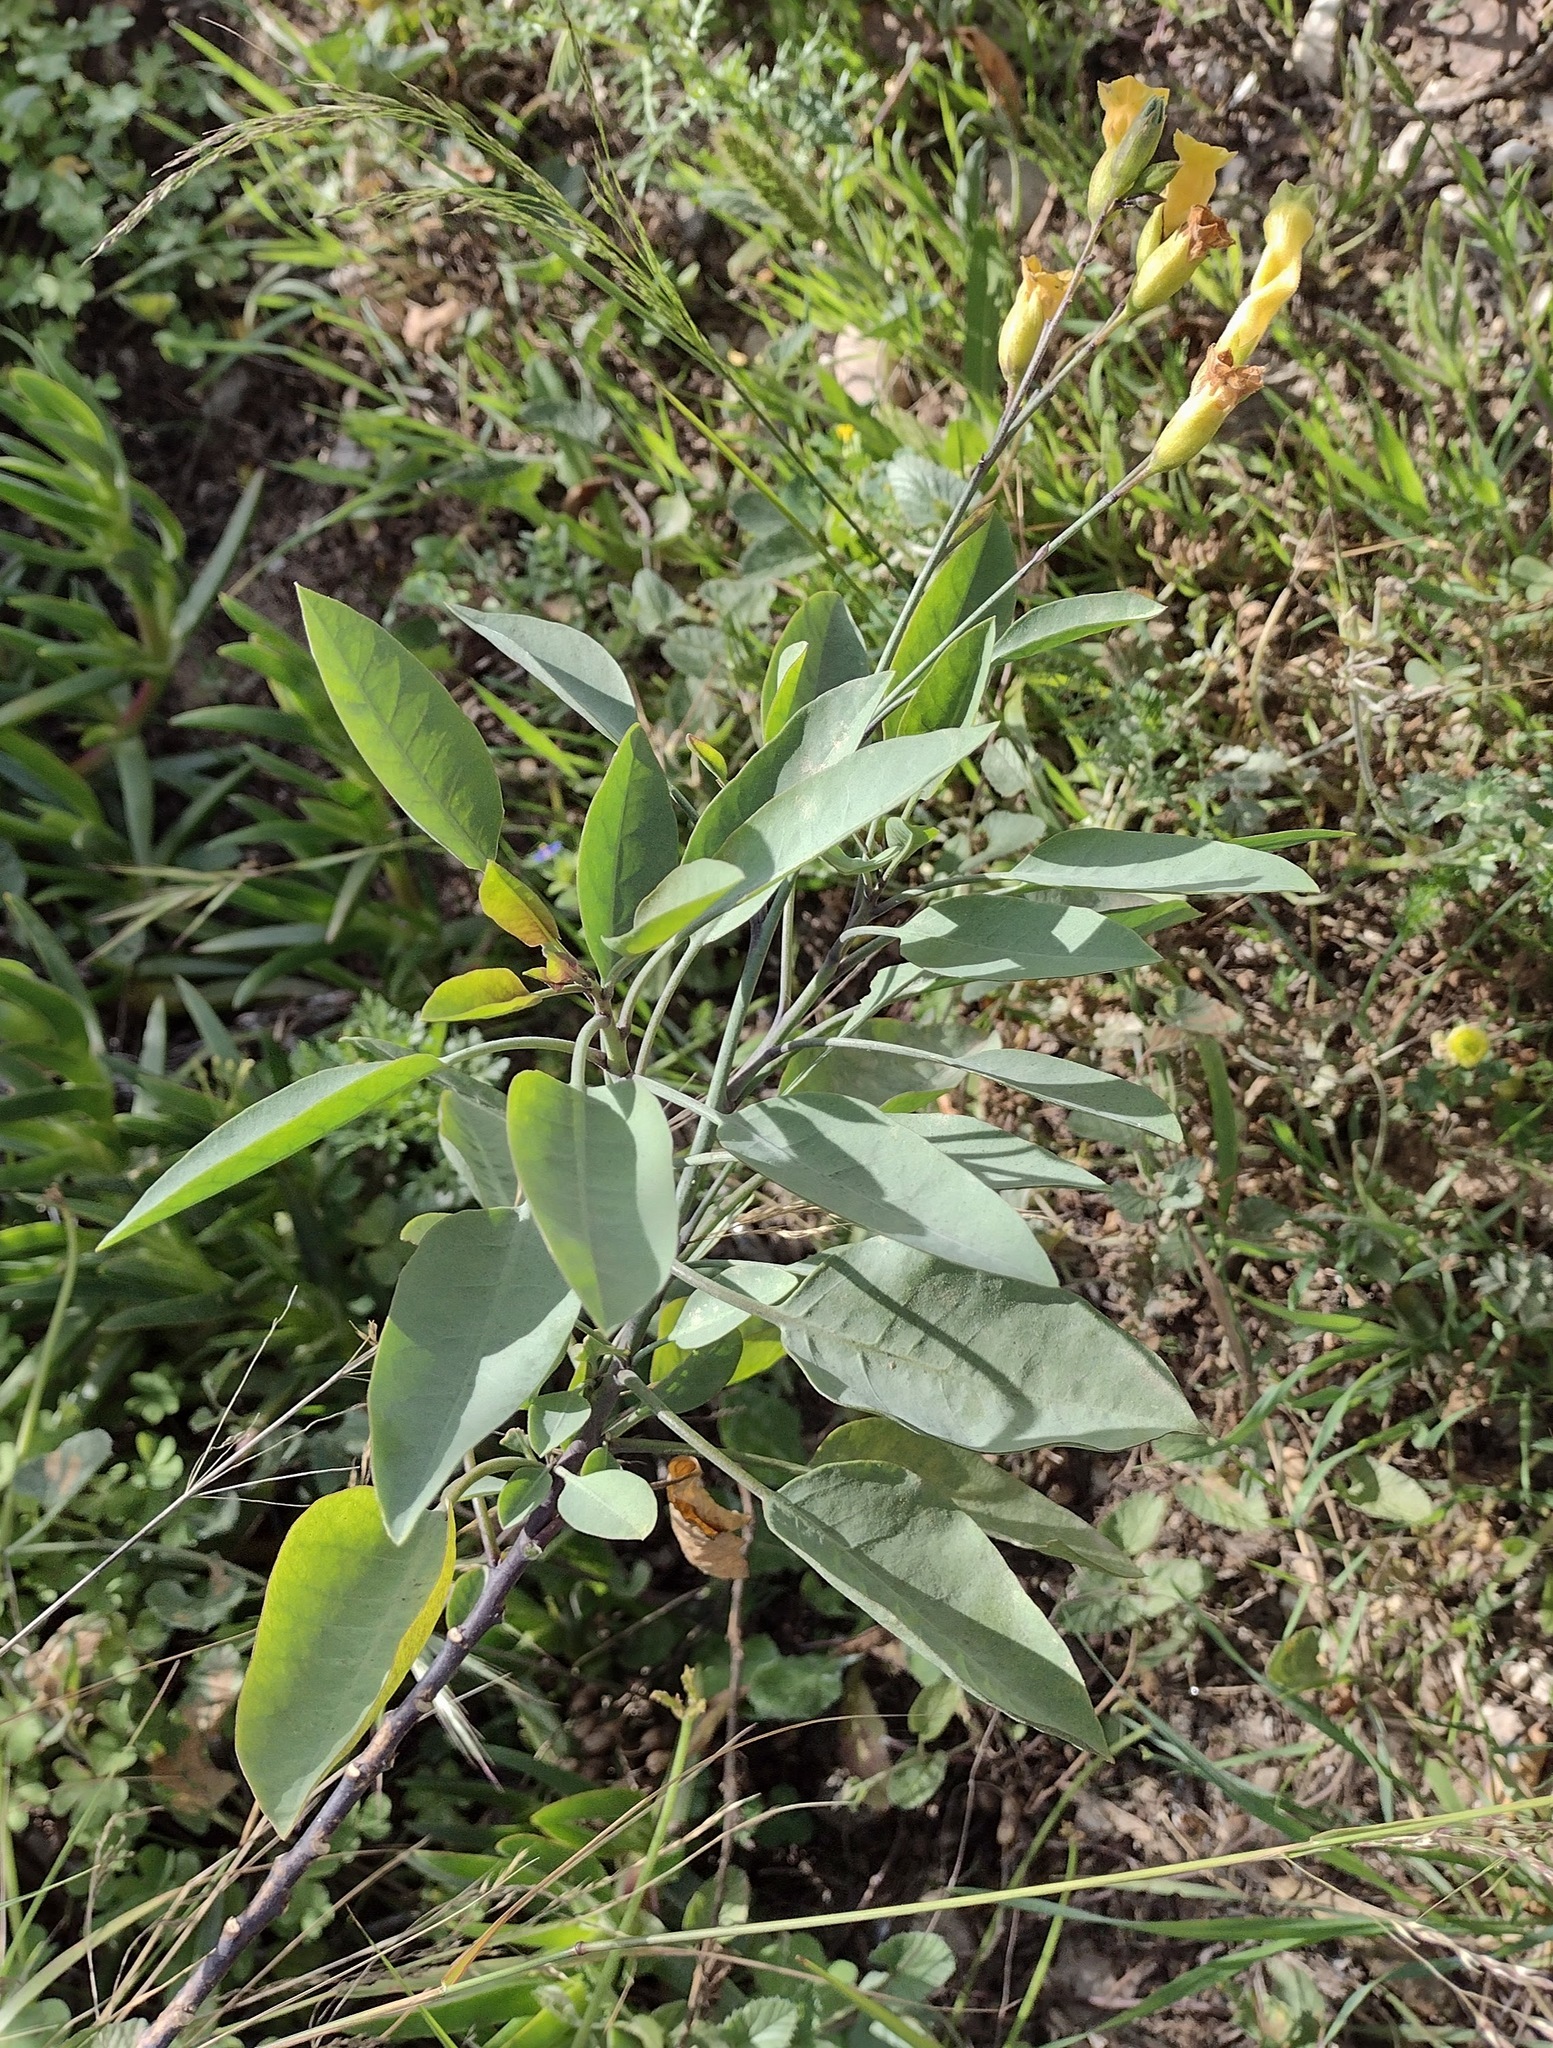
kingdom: Plantae
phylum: Tracheophyta
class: Magnoliopsida
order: Solanales
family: Solanaceae
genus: Nicotiana
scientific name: Nicotiana glauca
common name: Tree tobacco
